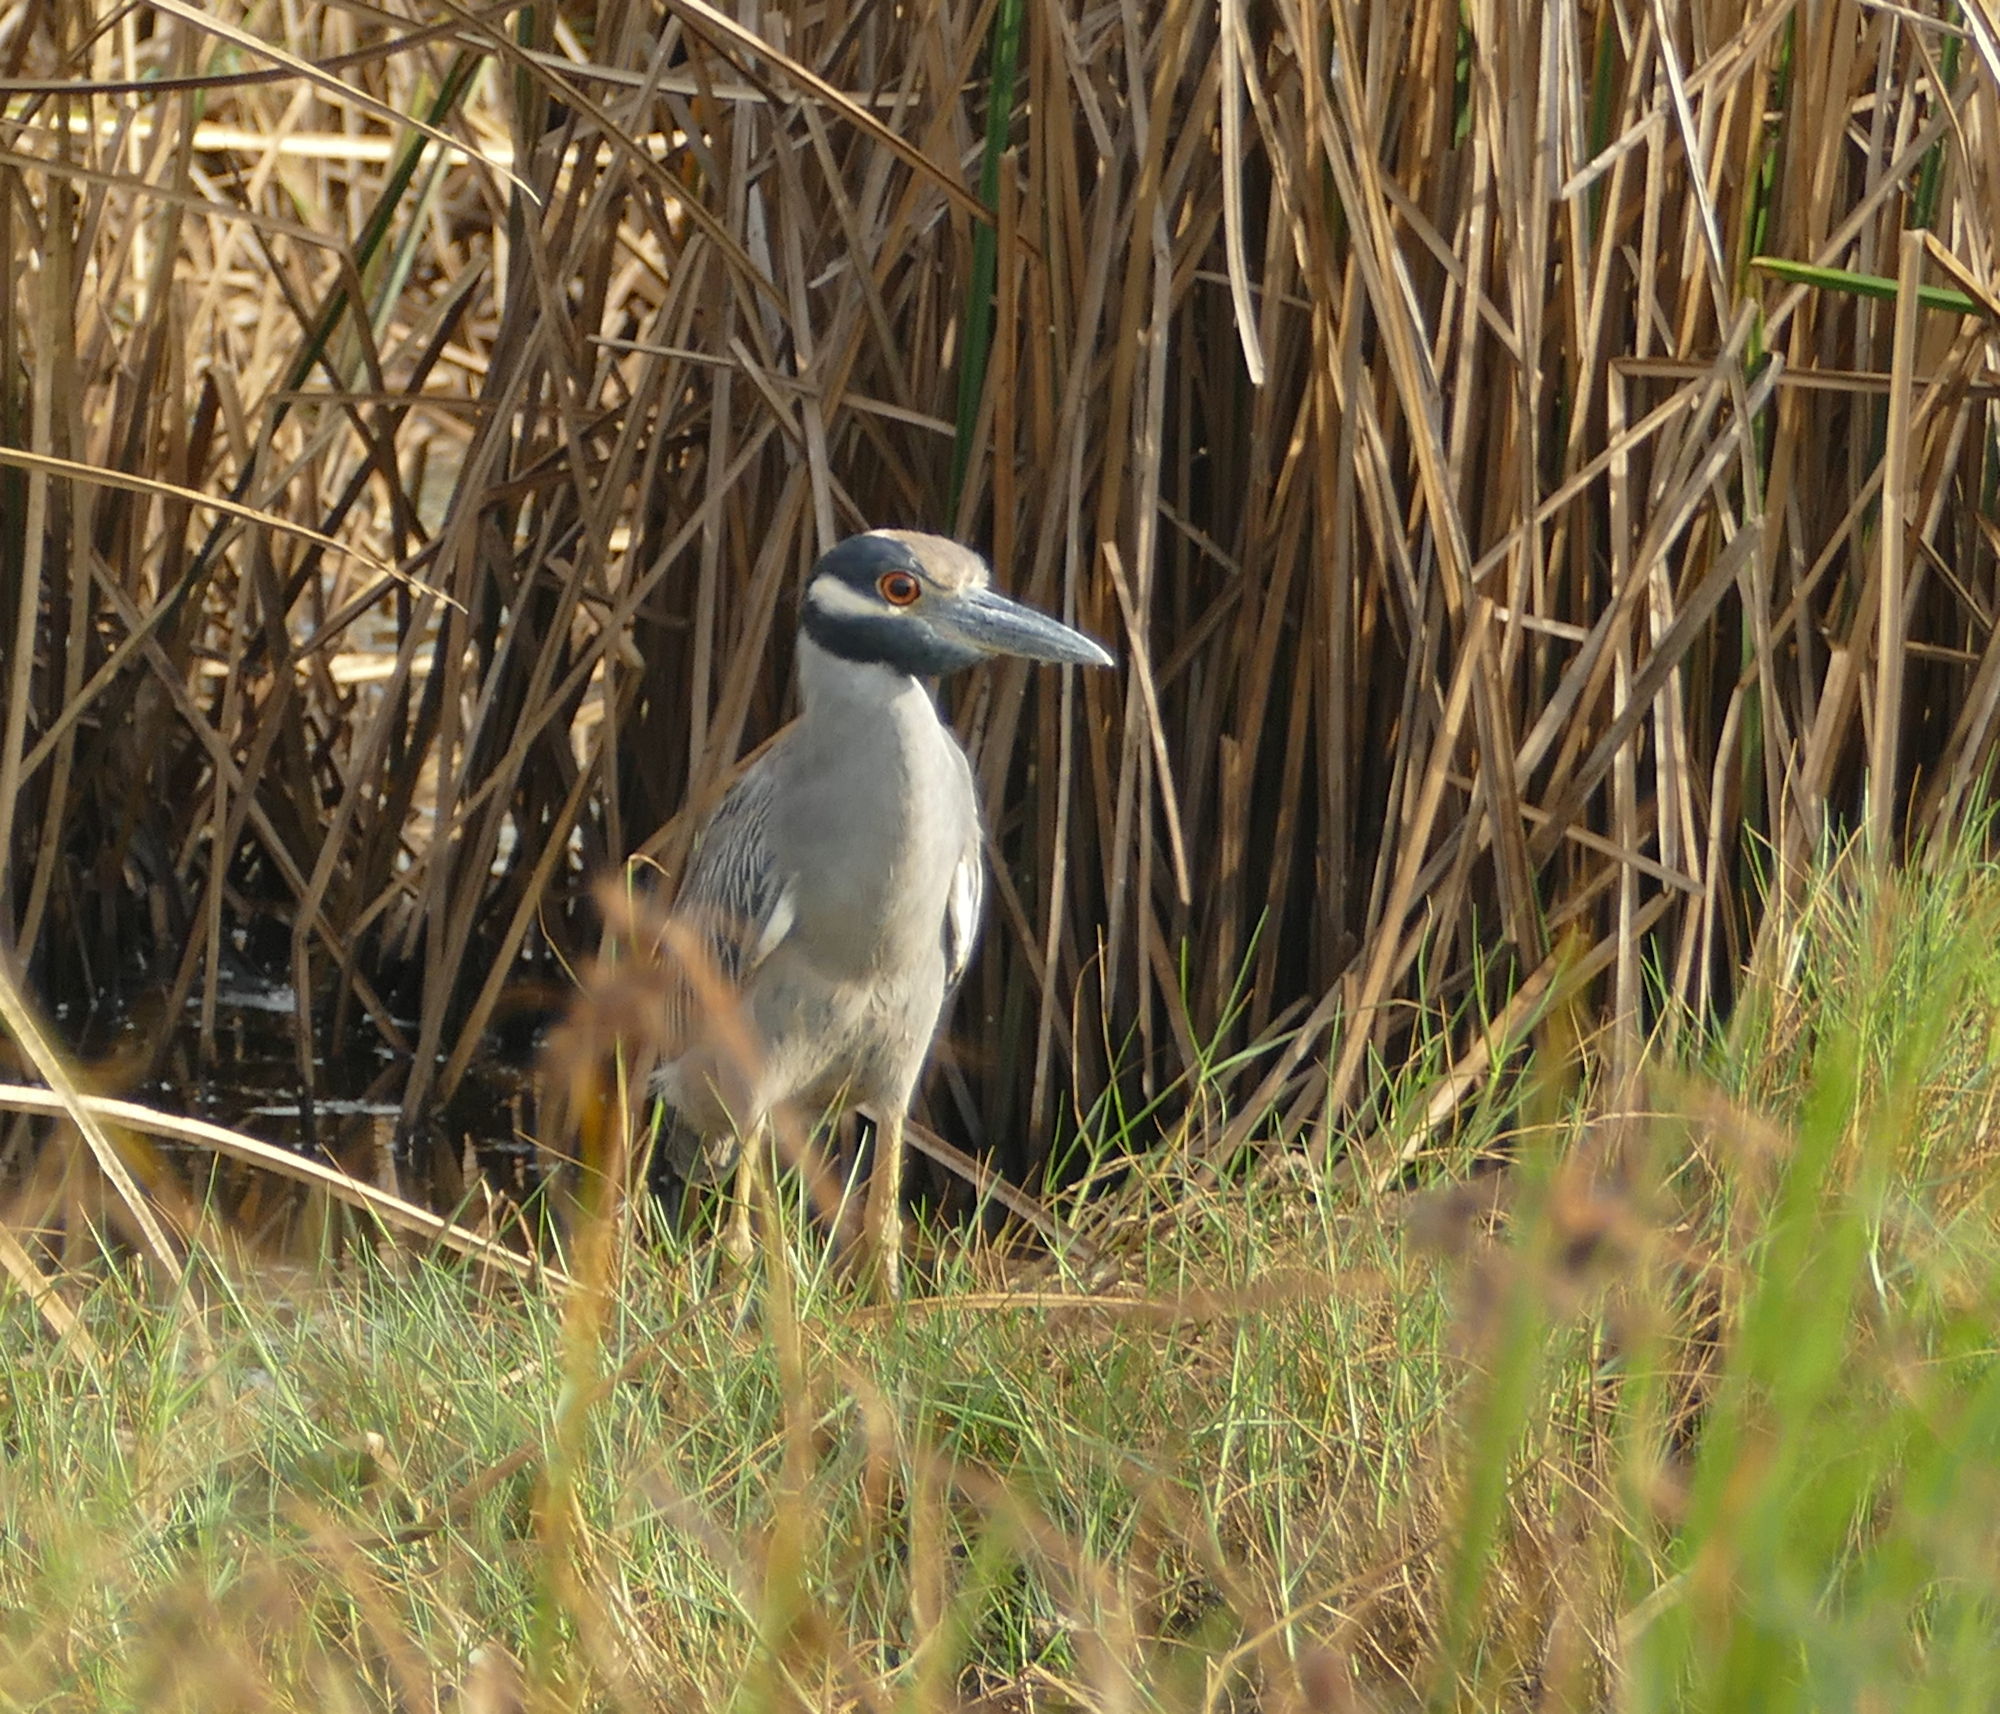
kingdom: Animalia
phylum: Chordata
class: Aves
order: Pelecaniformes
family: Ardeidae
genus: Nyctanassa
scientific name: Nyctanassa violacea
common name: Yellow-crowned night heron
